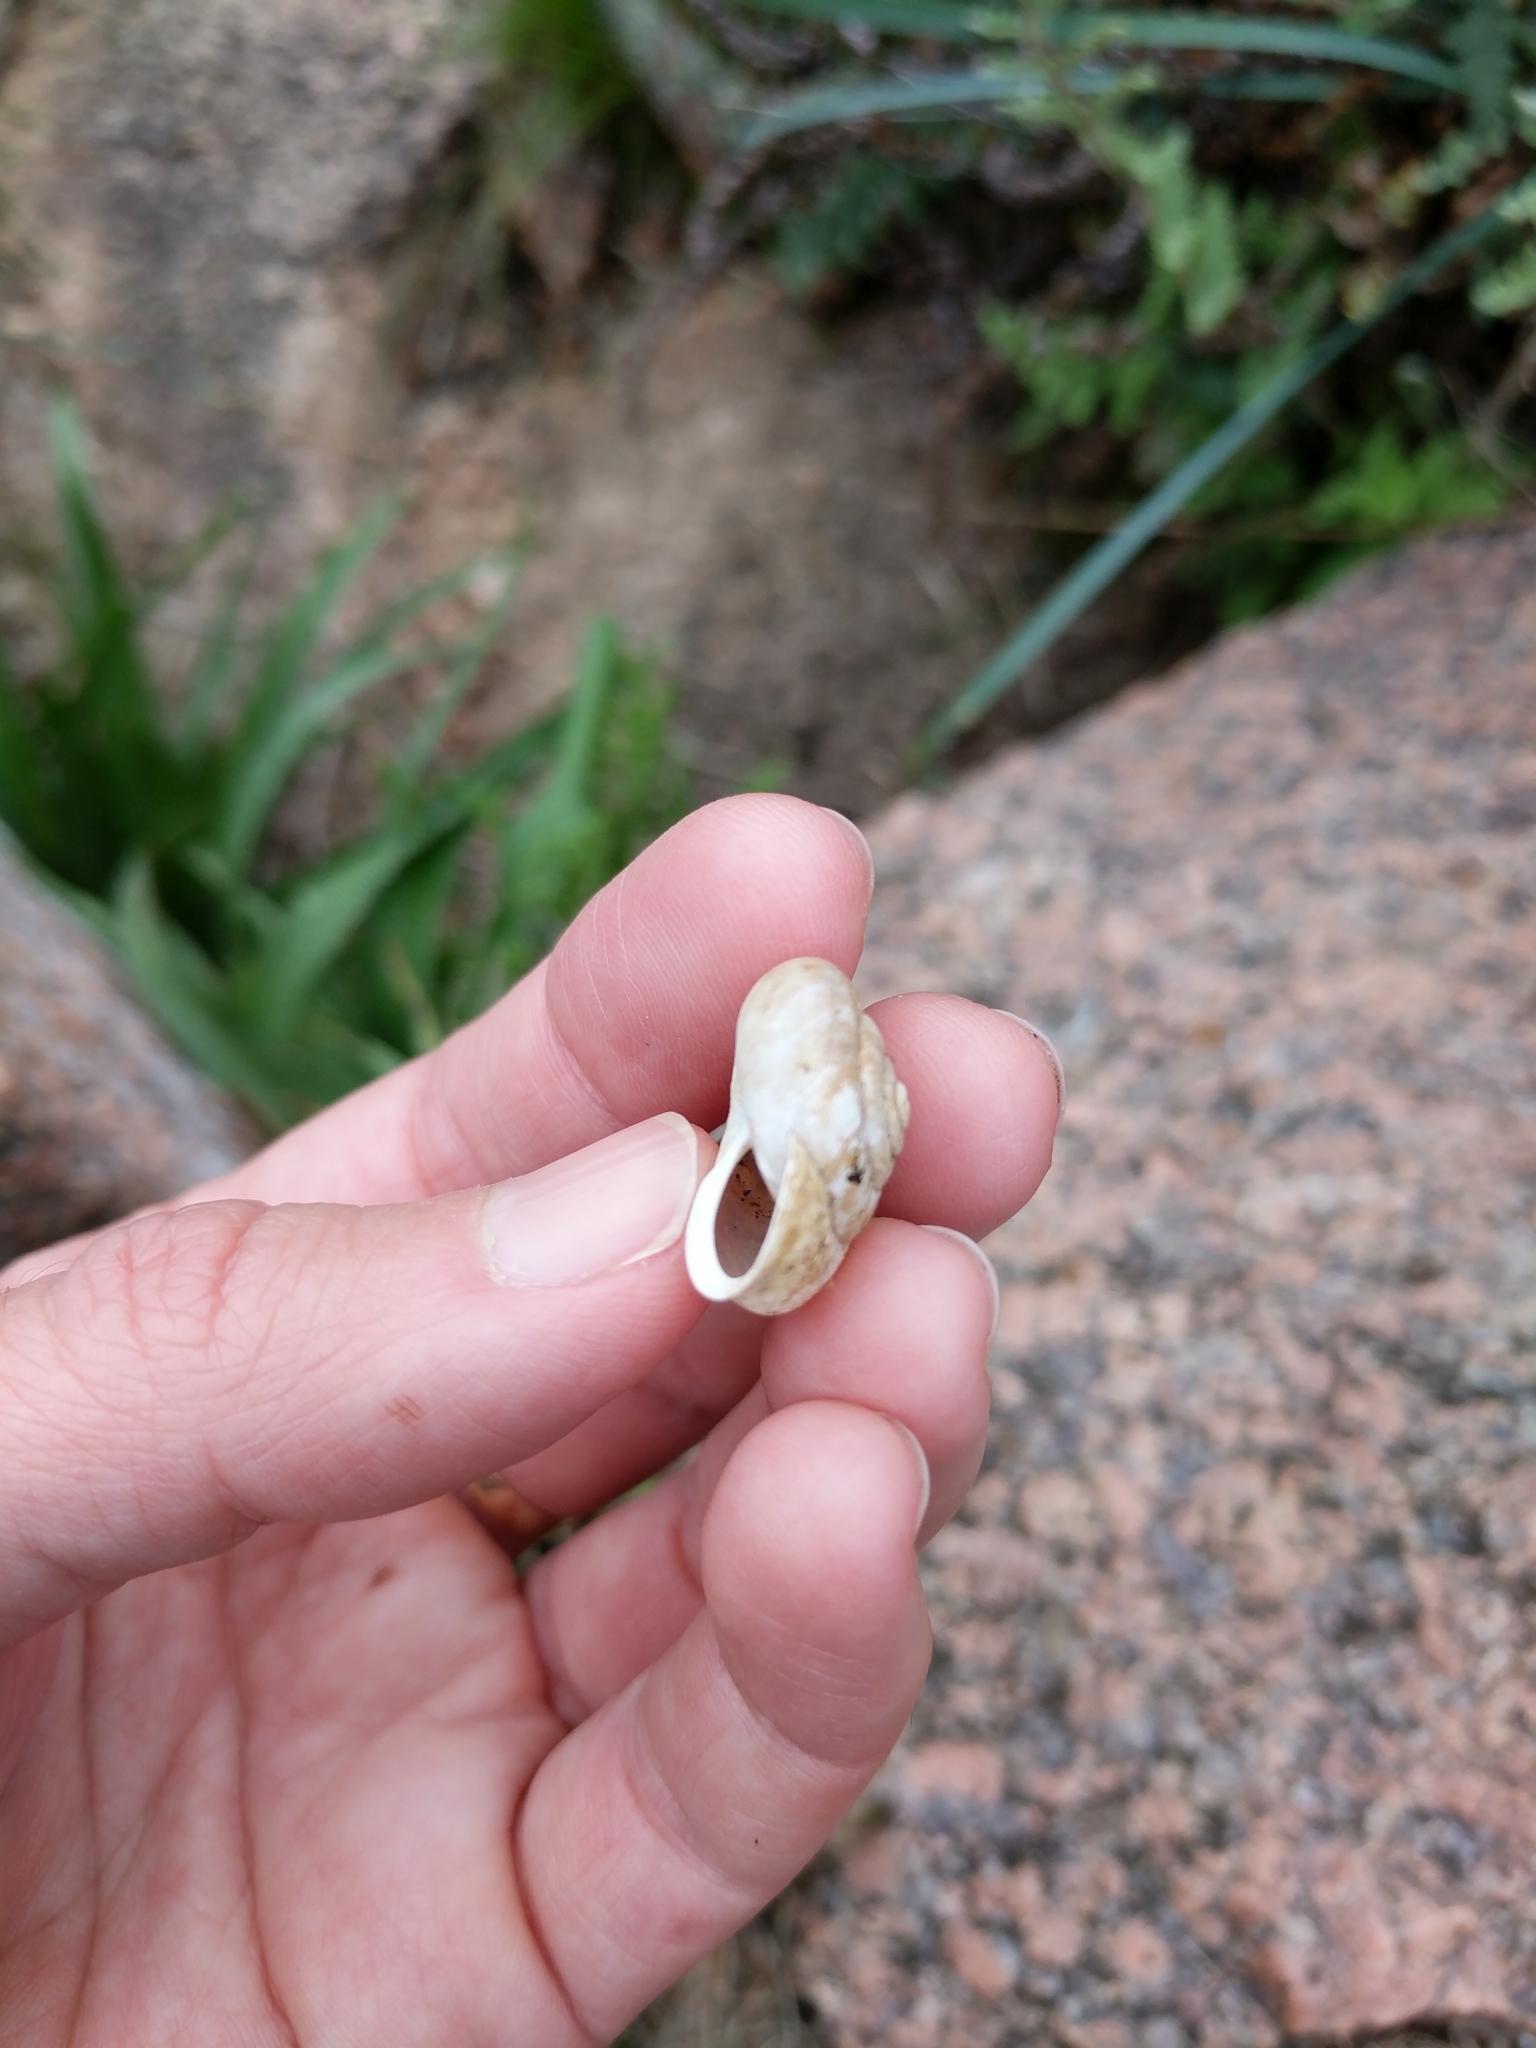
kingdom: Animalia
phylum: Mollusca
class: Gastropoda
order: Stylommatophora
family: Polygyridae
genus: Patera
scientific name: Patera roemeri
